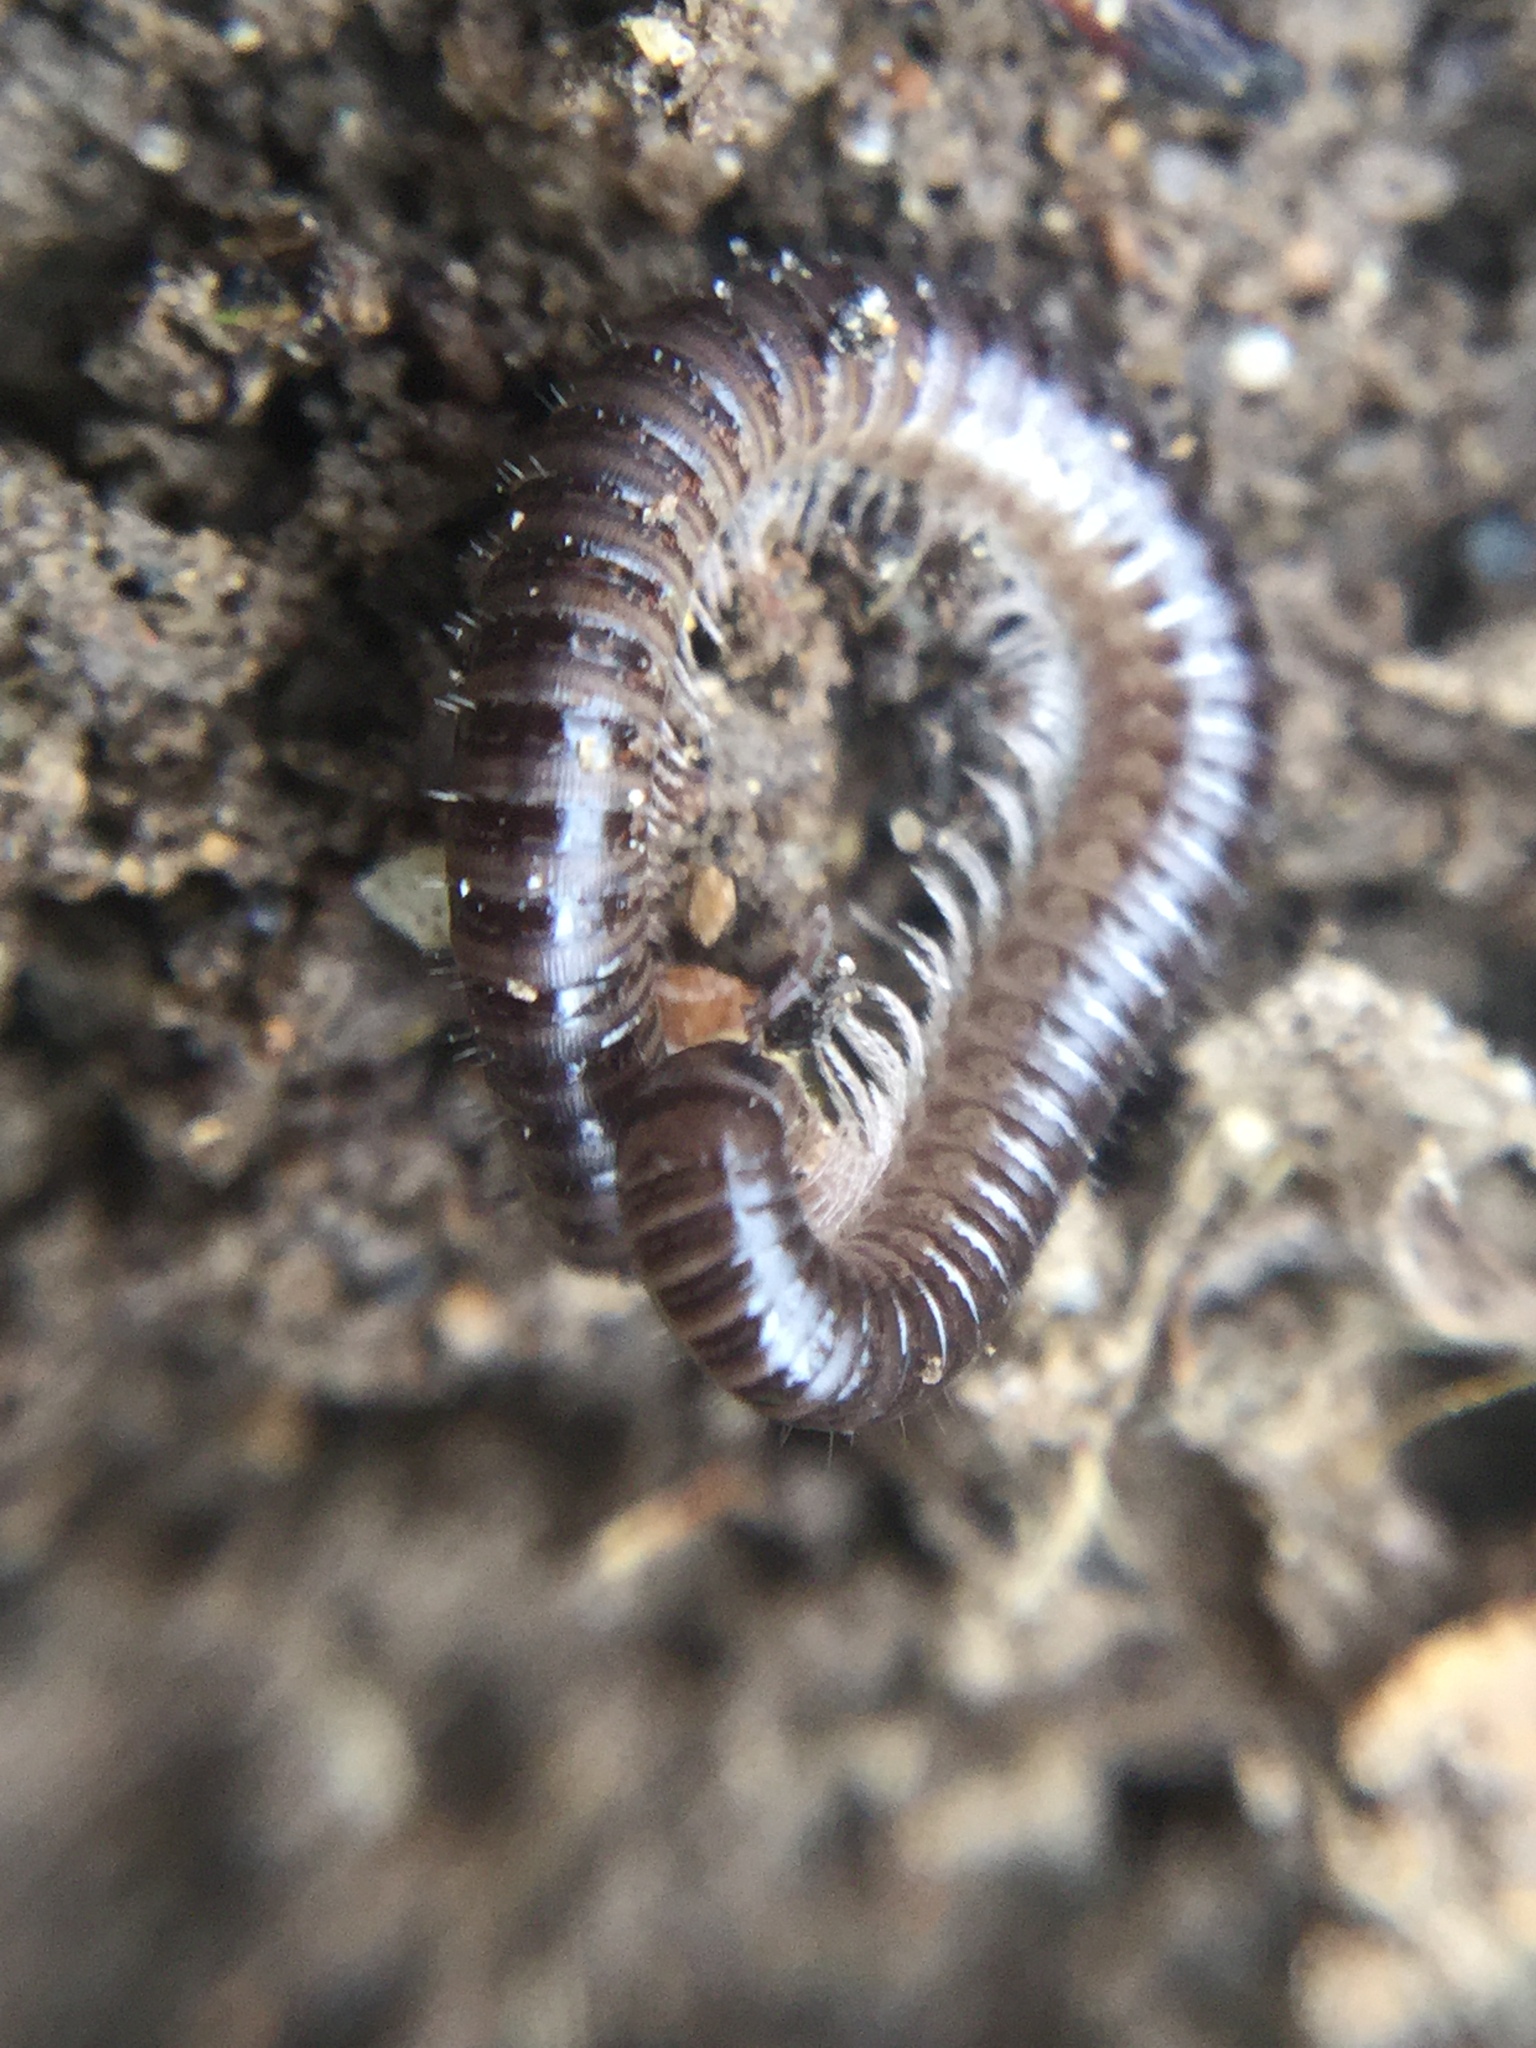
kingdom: Animalia
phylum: Arthropoda
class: Diplopoda
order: Julida
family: Julidae
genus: Ophyiulus
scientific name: Ophyiulus pilosus
